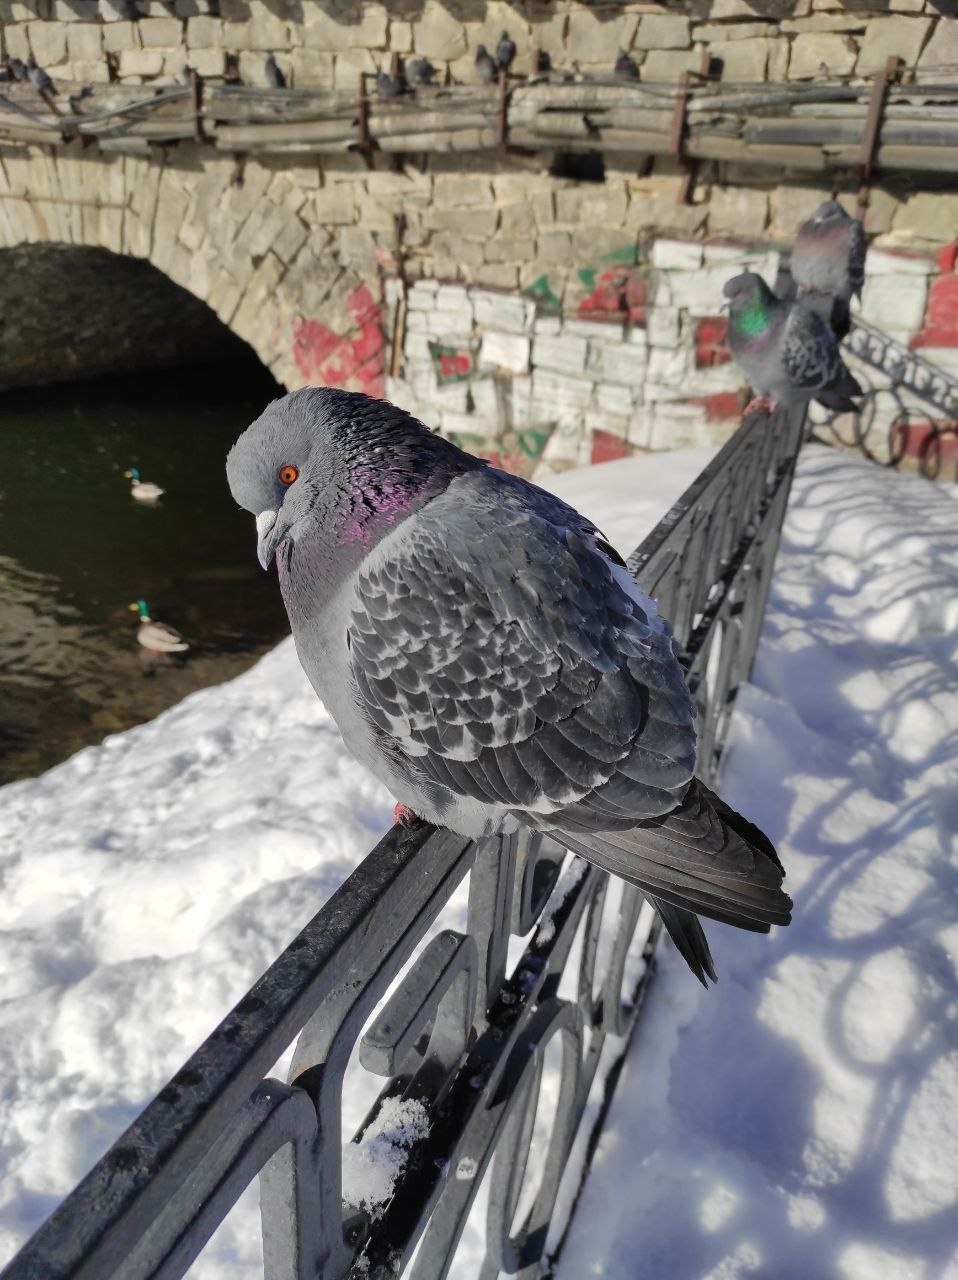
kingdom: Animalia
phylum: Chordata
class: Aves
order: Columbiformes
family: Columbidae
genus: Columba
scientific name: Columba livia
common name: Rock pigeon
